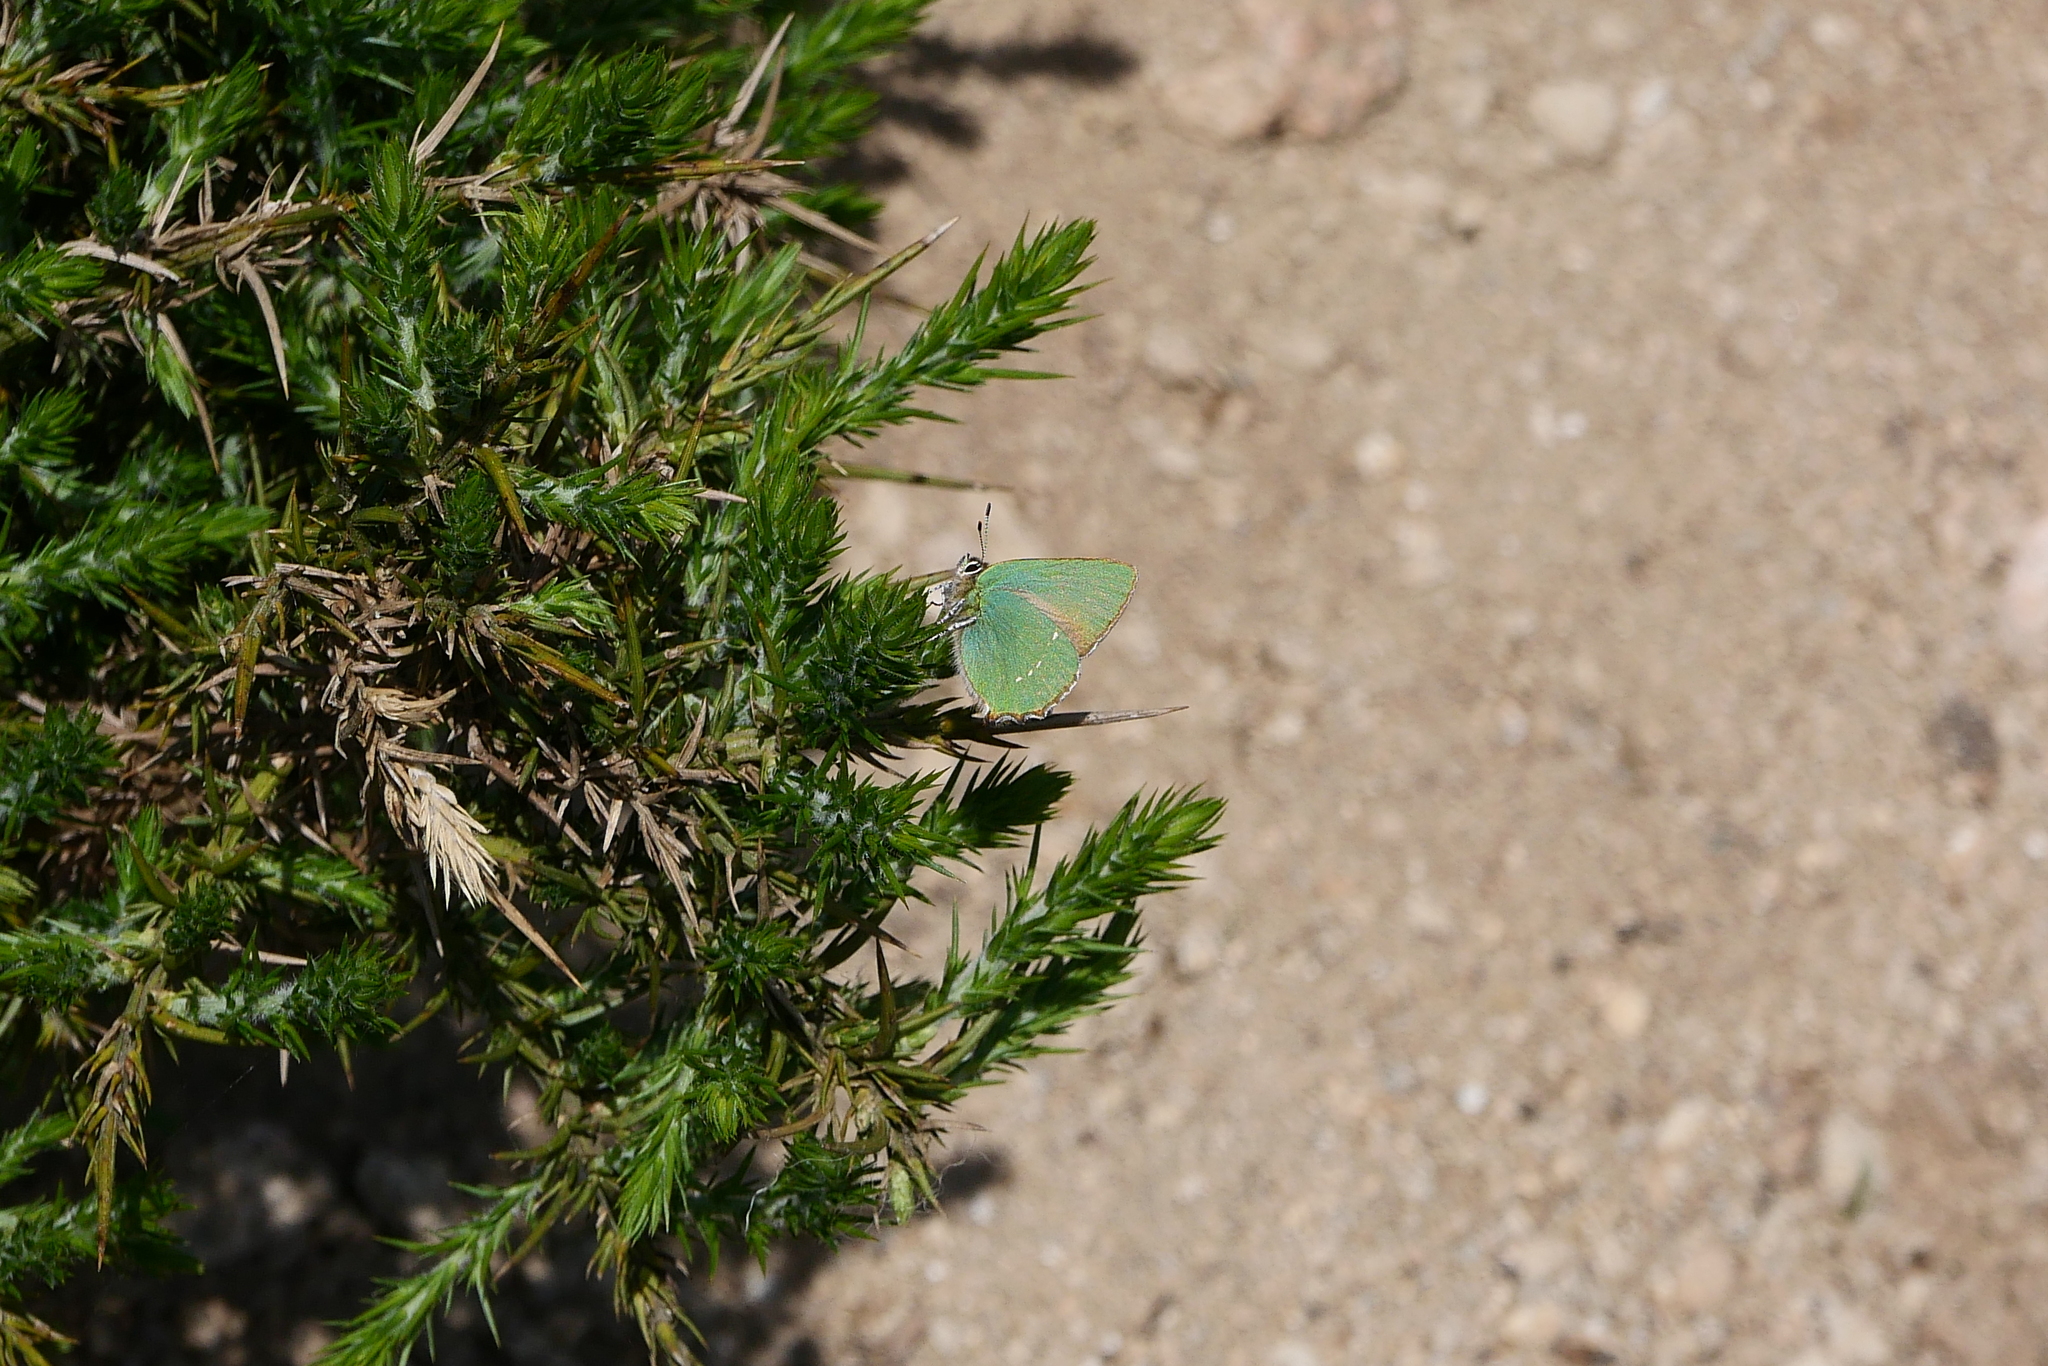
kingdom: Animalia
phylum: Arthropoda
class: Insecta
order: Lepidoptera
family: Lycaenidae
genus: Callophrys
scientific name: Callophrys rubi
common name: Green hairstreak
